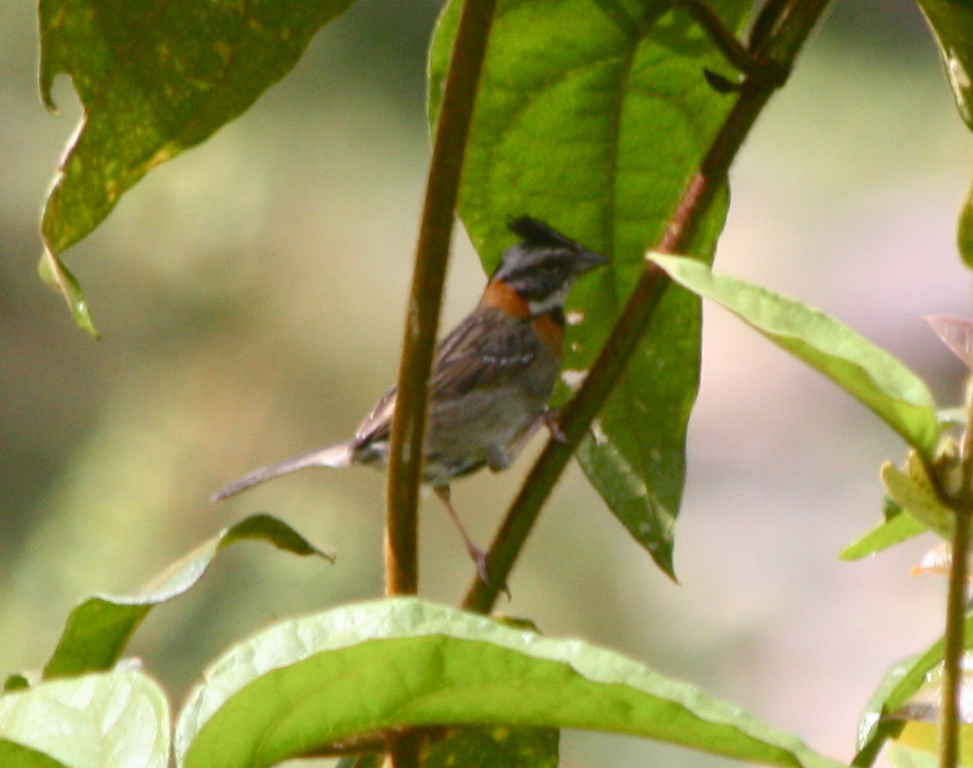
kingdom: Animalia
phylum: Chordata
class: Aves
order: Passeriformes
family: Passerellidae
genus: Zonotrichia
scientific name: Zonotrichia capensis
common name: Rufous-collared sparrow
